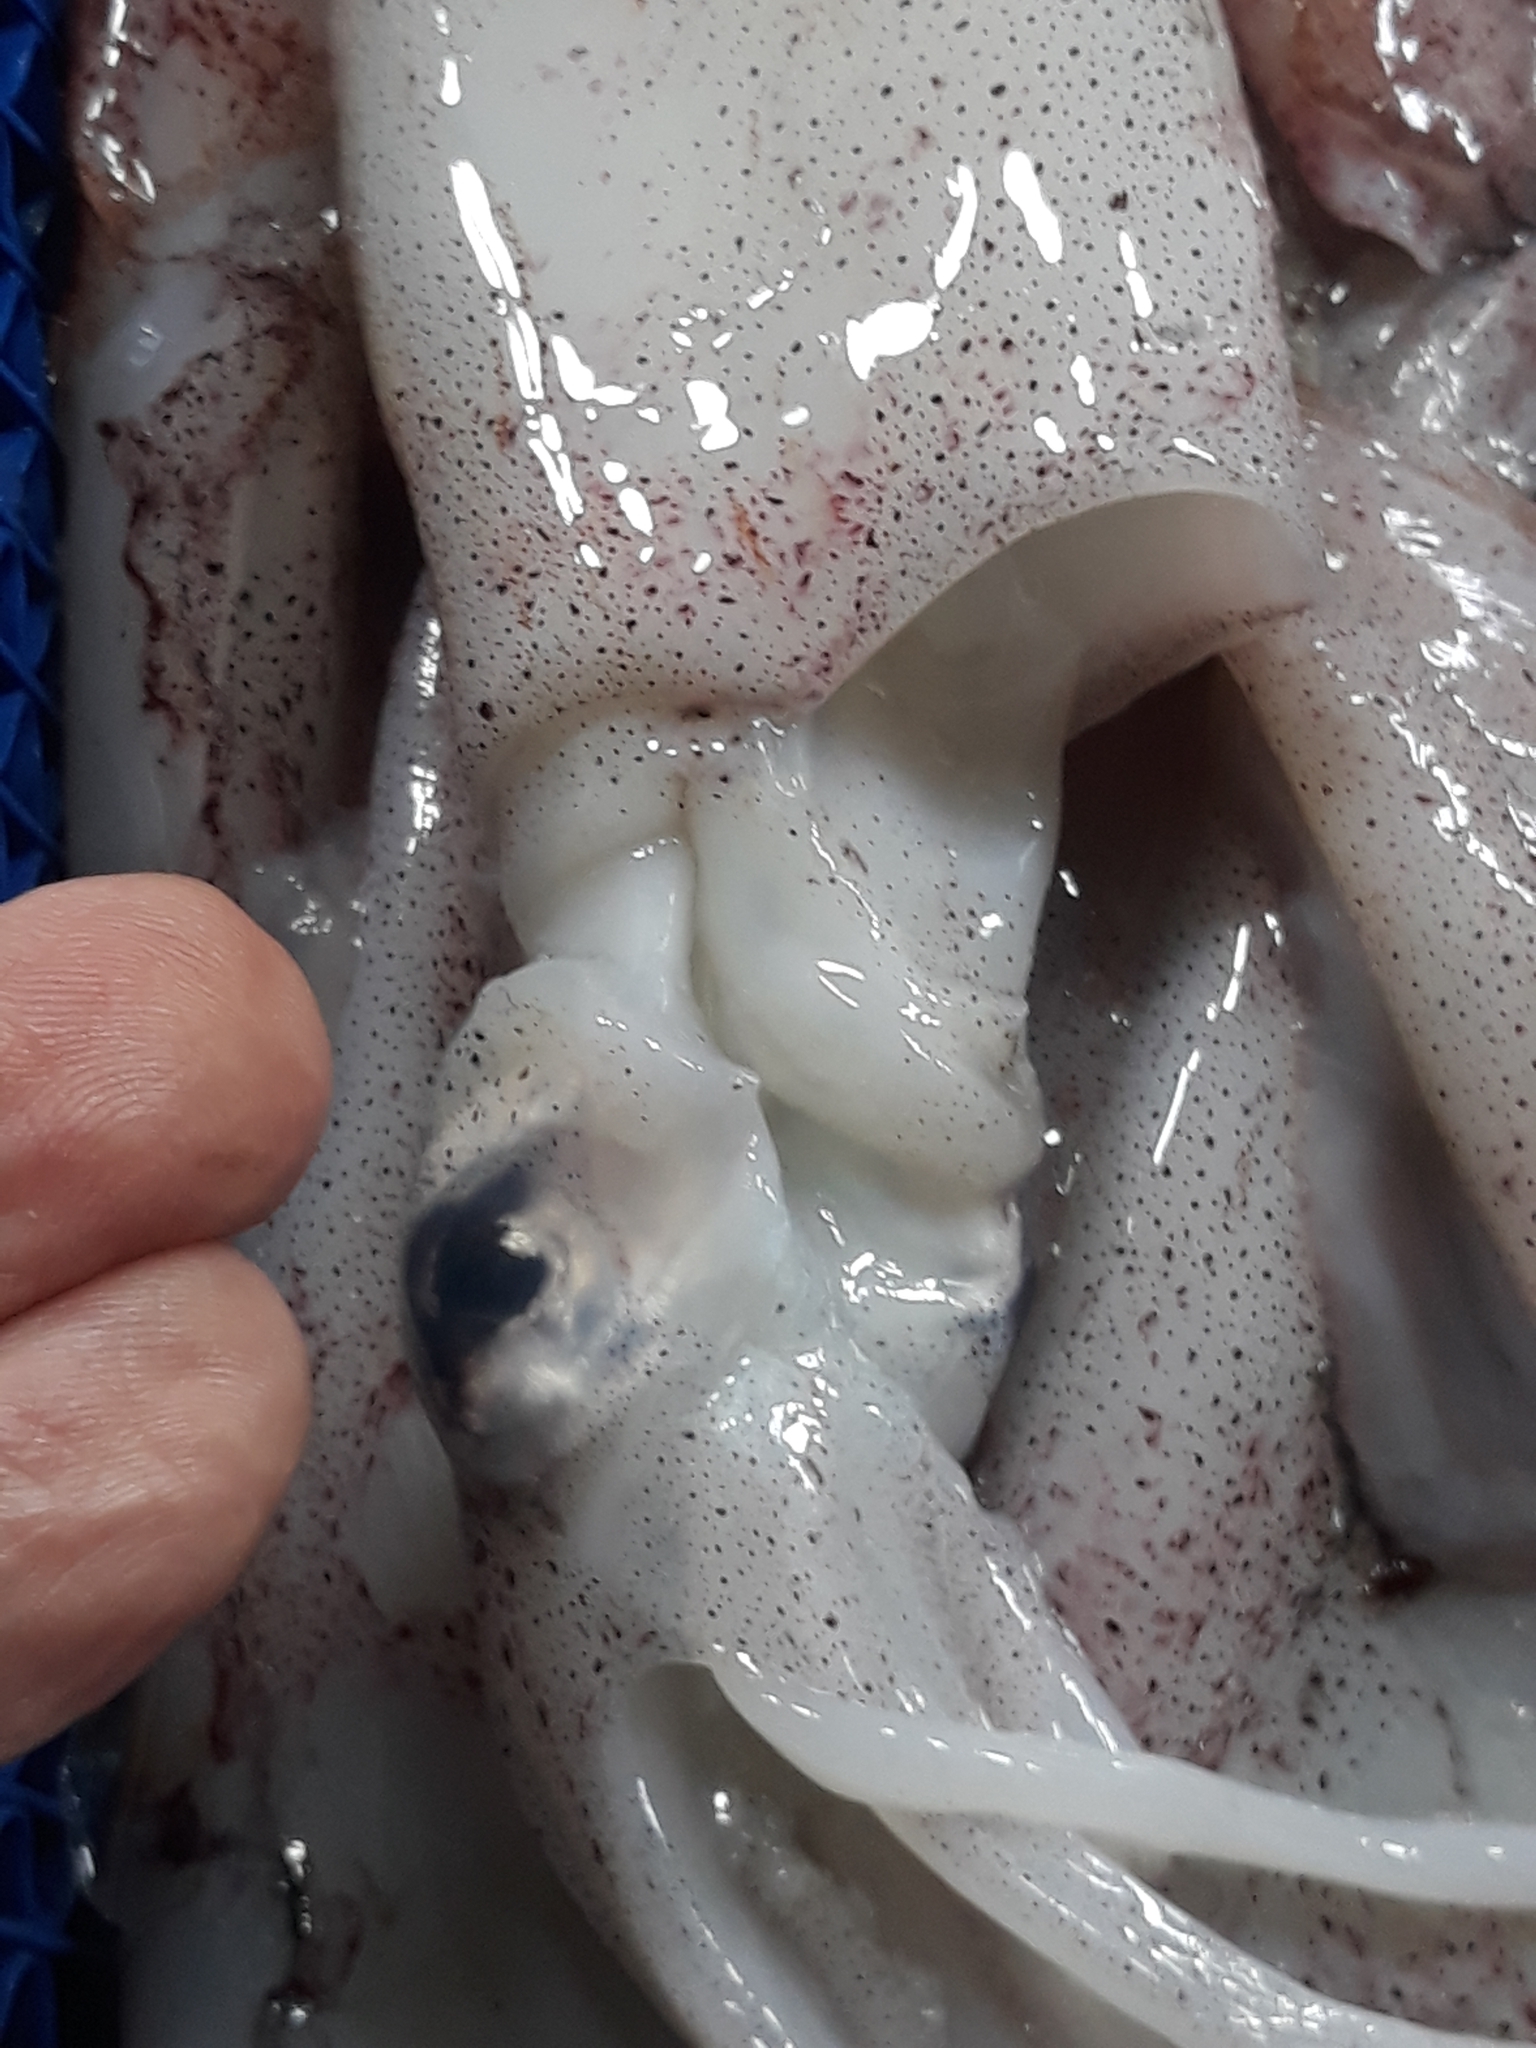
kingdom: Animalia
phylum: Mollusca
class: Cephalopoda
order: Myopsida
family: Loliginidae
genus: Loligo
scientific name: Loligo vulgaris
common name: European squid
